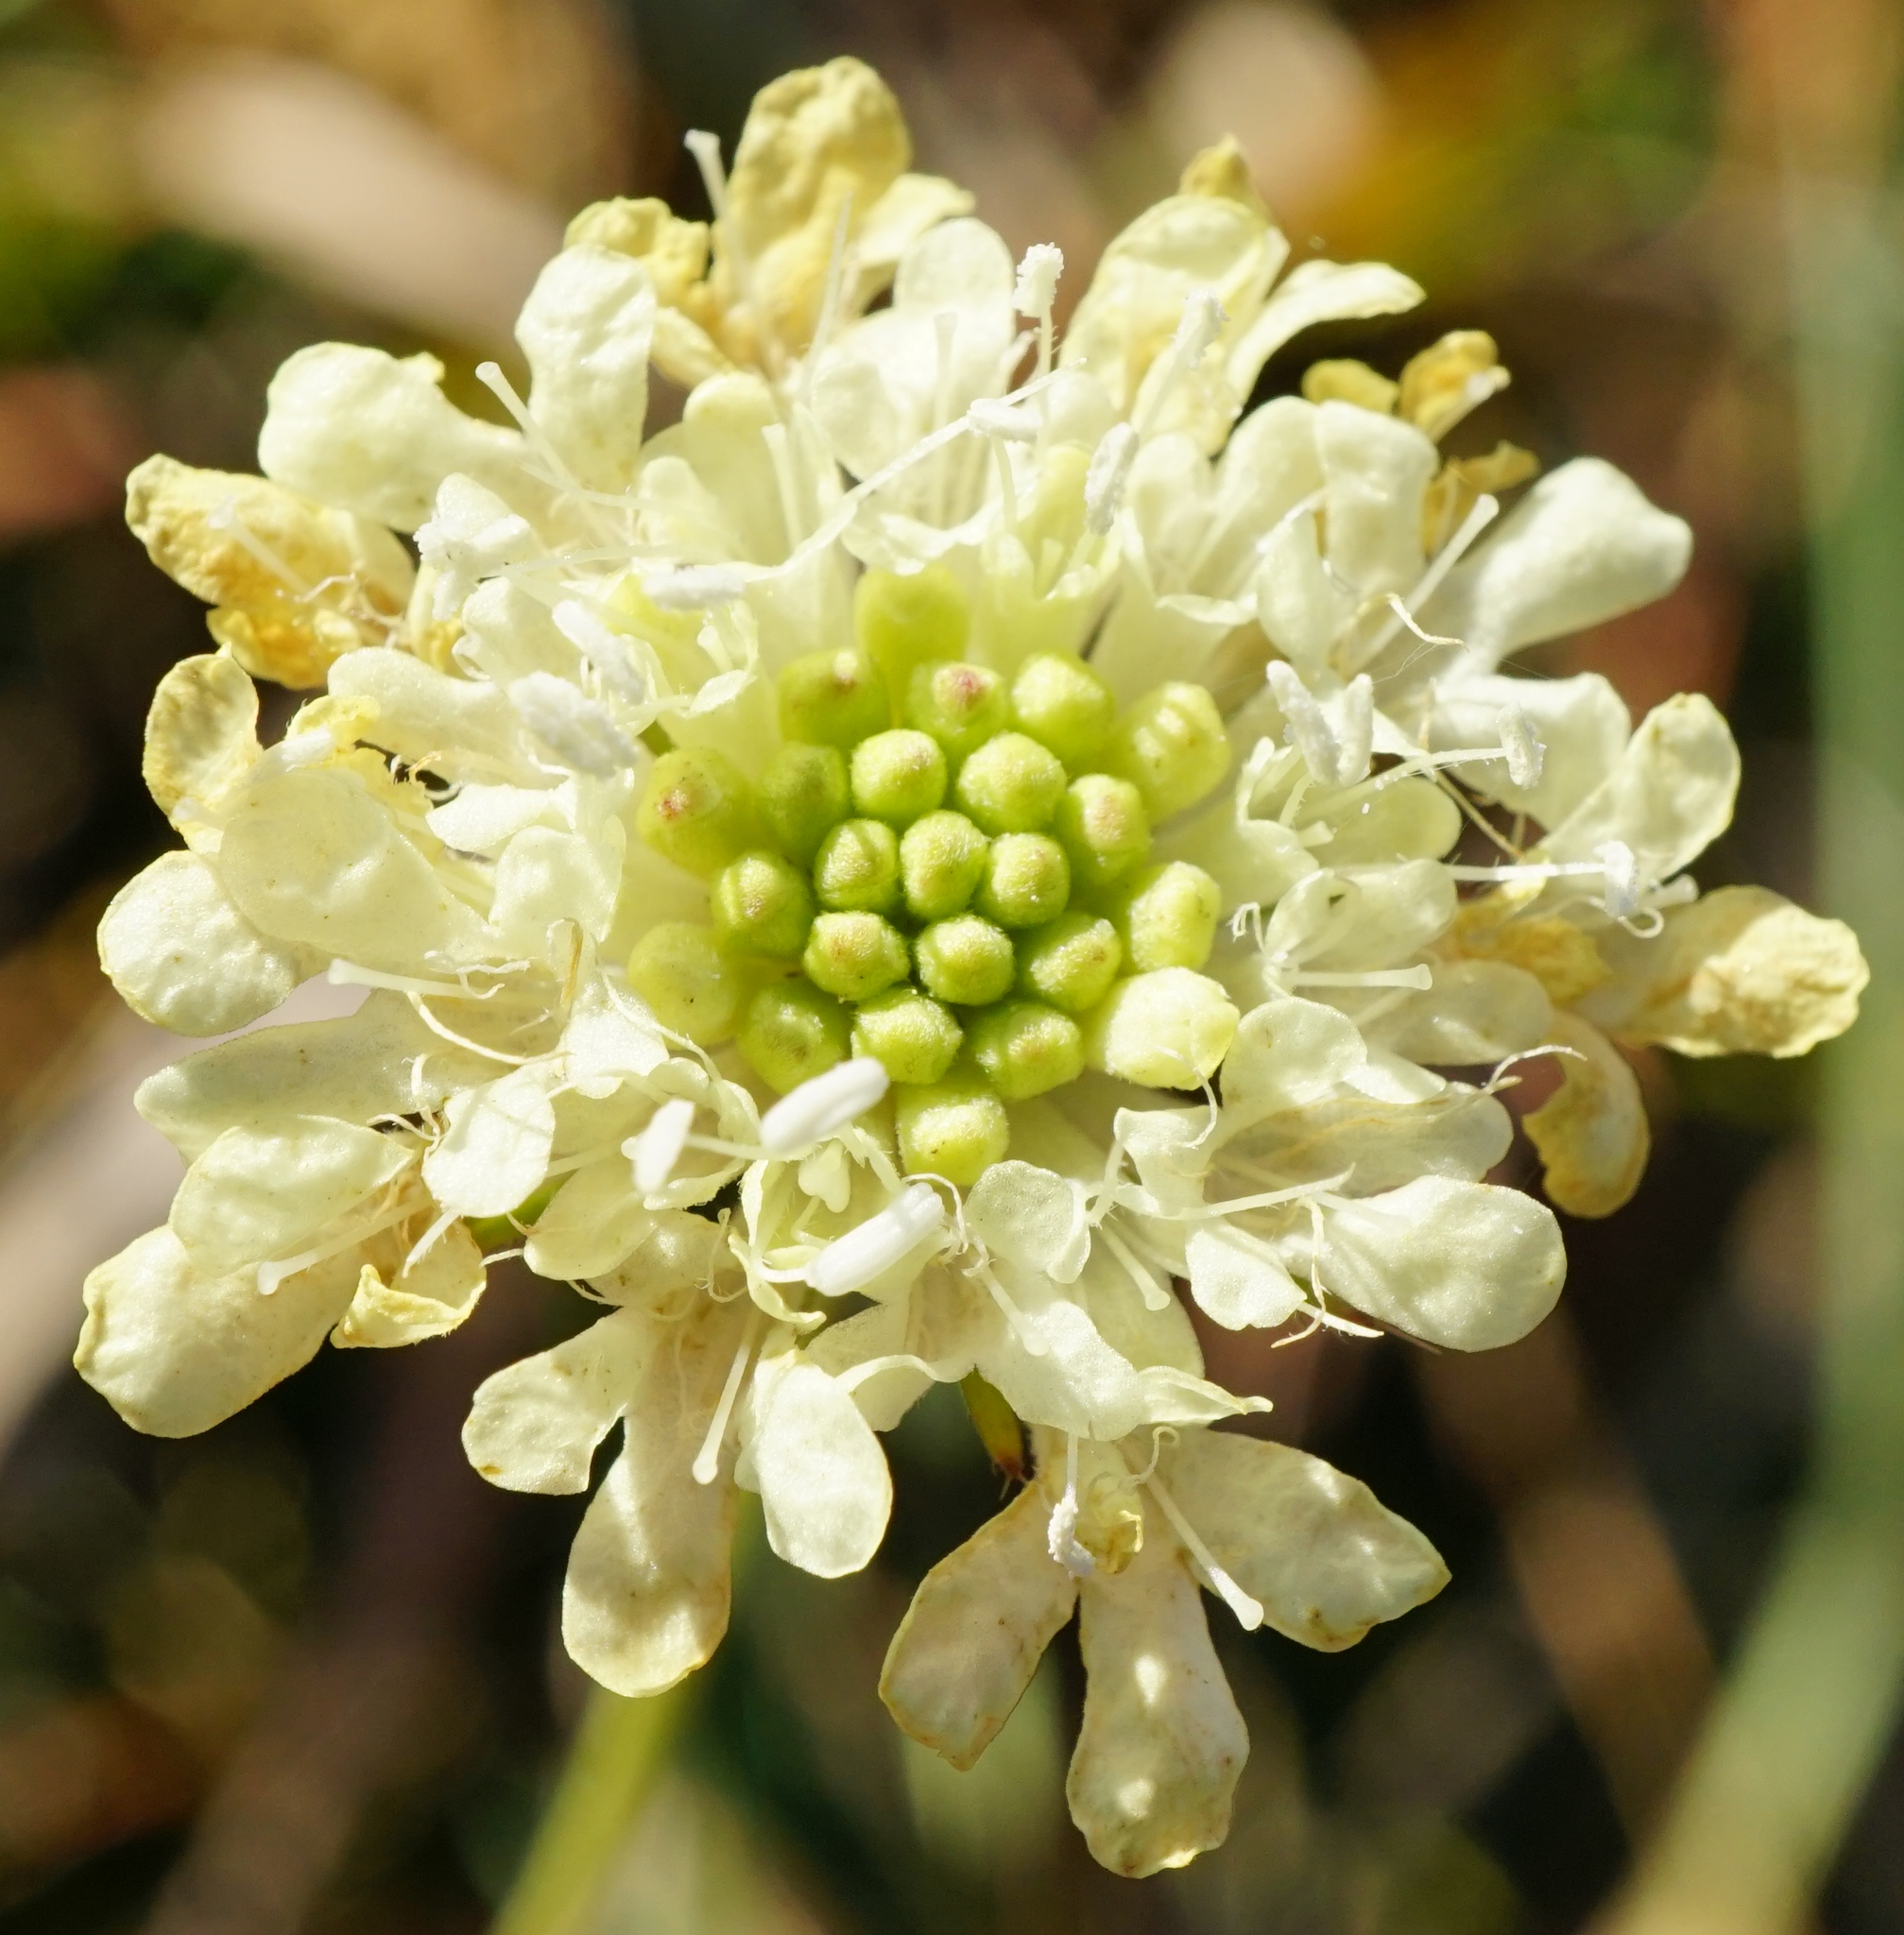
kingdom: Plantae
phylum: Tracheophyta
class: Magnoliopsida
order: Dipsacales
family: Caprifoliaceae
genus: Scabiosa
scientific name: Scabiosa ochroleuca
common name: Cream pincushions
